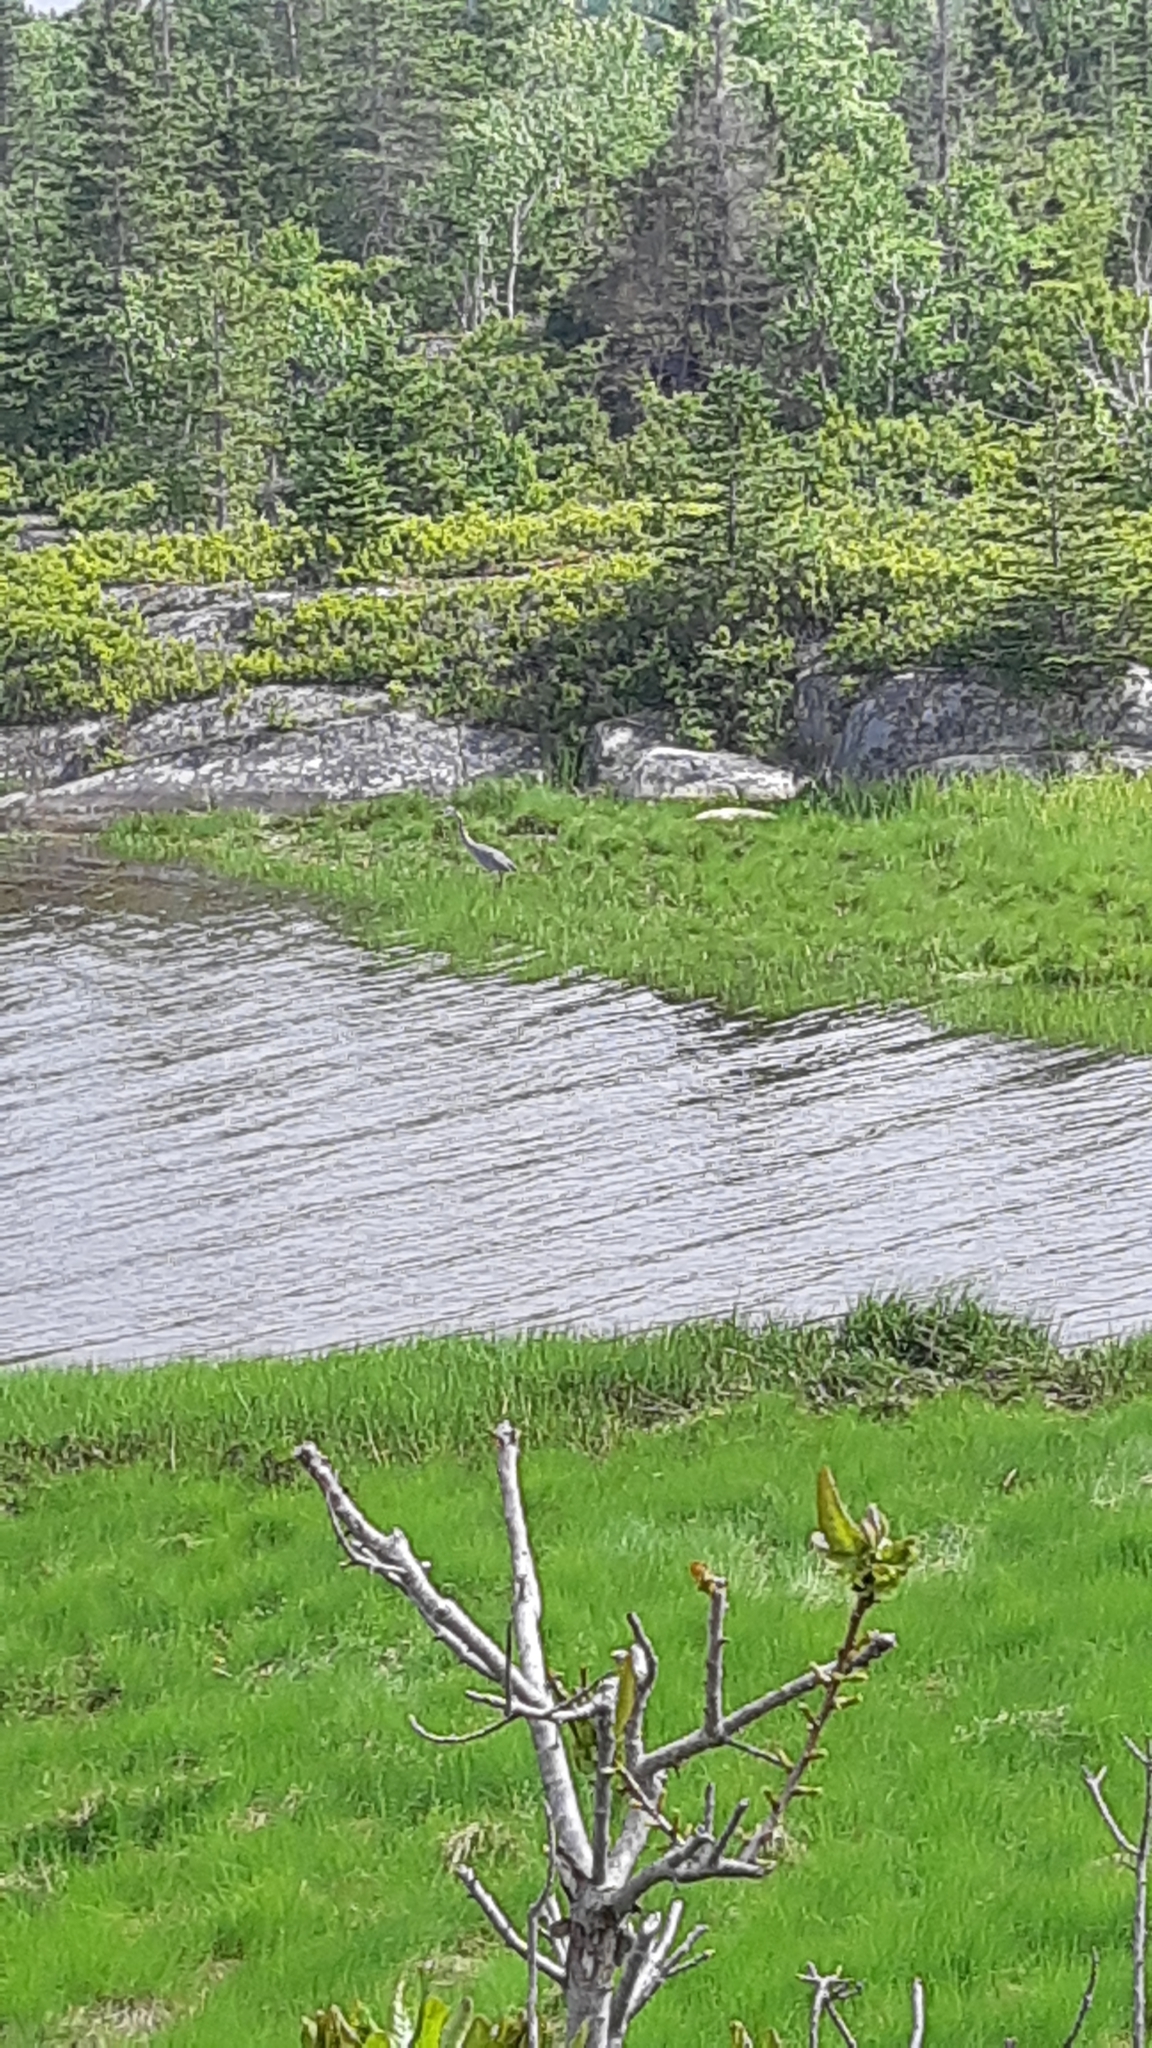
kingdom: Animalia
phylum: Chordata
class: Aves
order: Pelecaniformes
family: Ardeidae
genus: Ardea
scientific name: Ardea herodias
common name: Great blue heron
